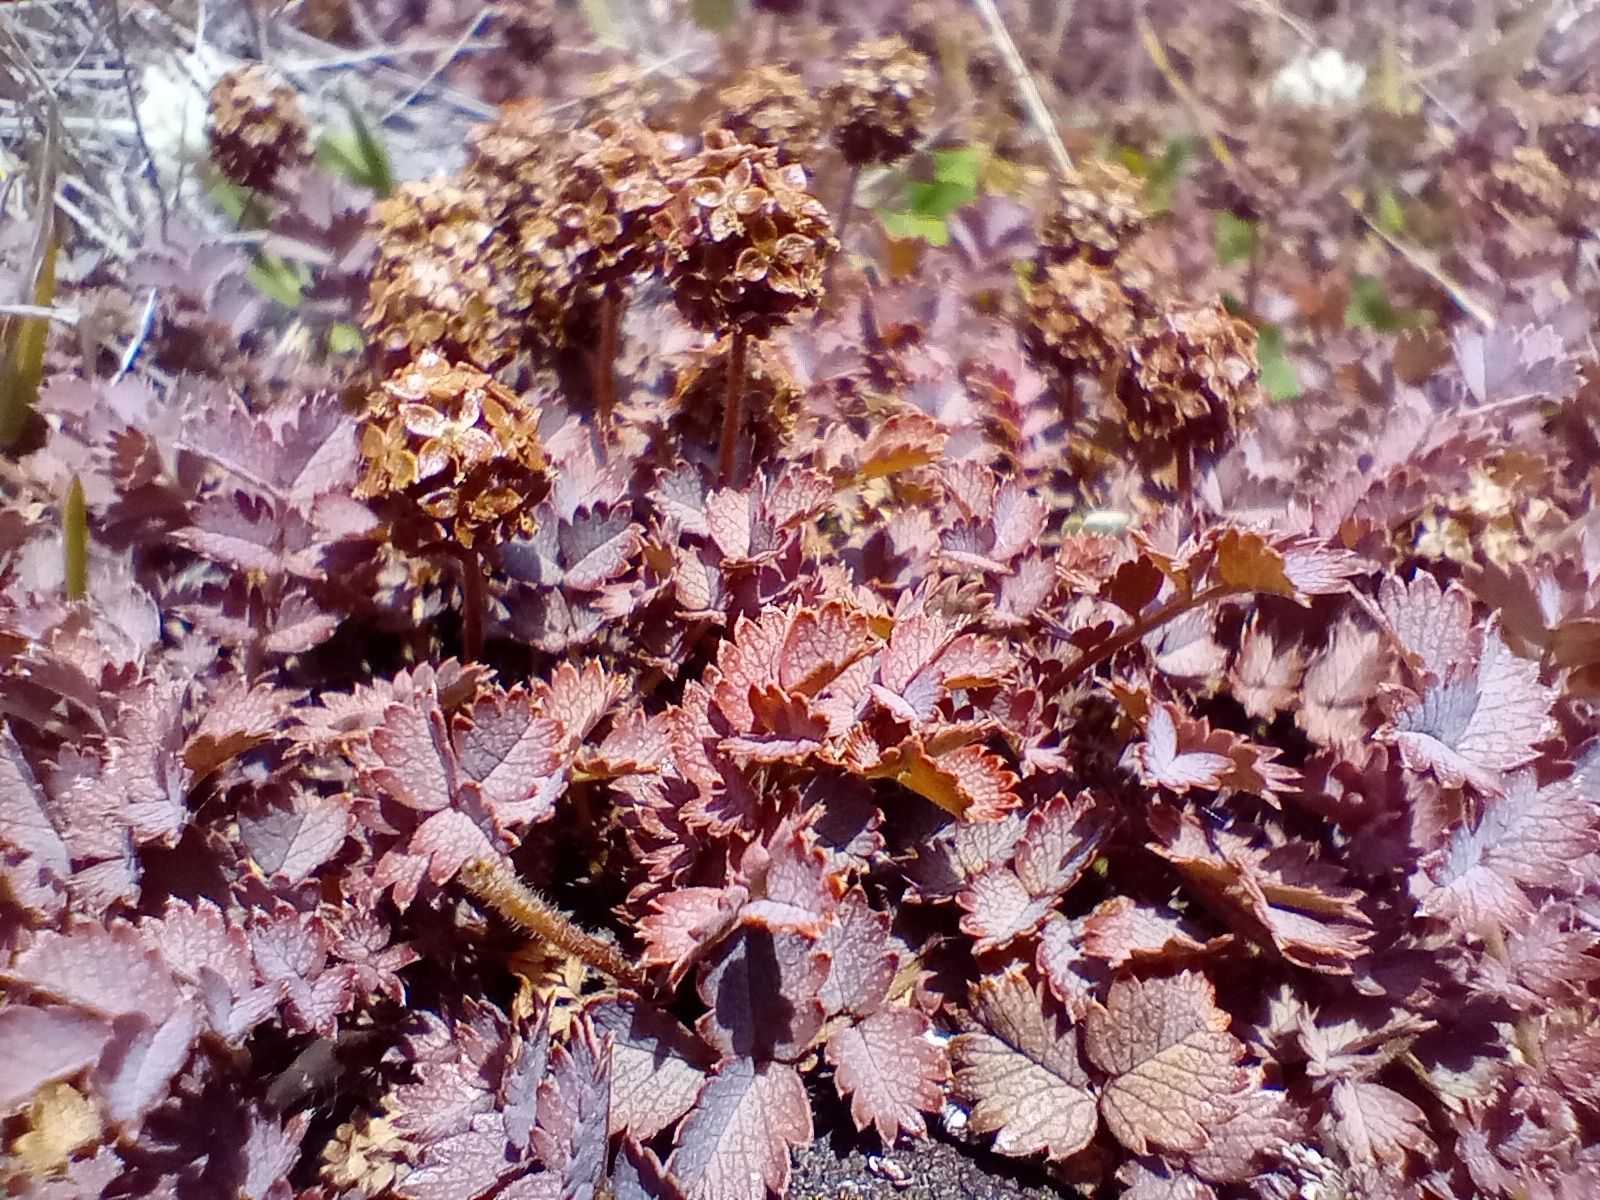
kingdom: Plantae
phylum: Tracheophyta
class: Magnoliopsida
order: Rosales
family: Rosaceae
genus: Acaena
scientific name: Acaena inermis
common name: Spineless acaena
